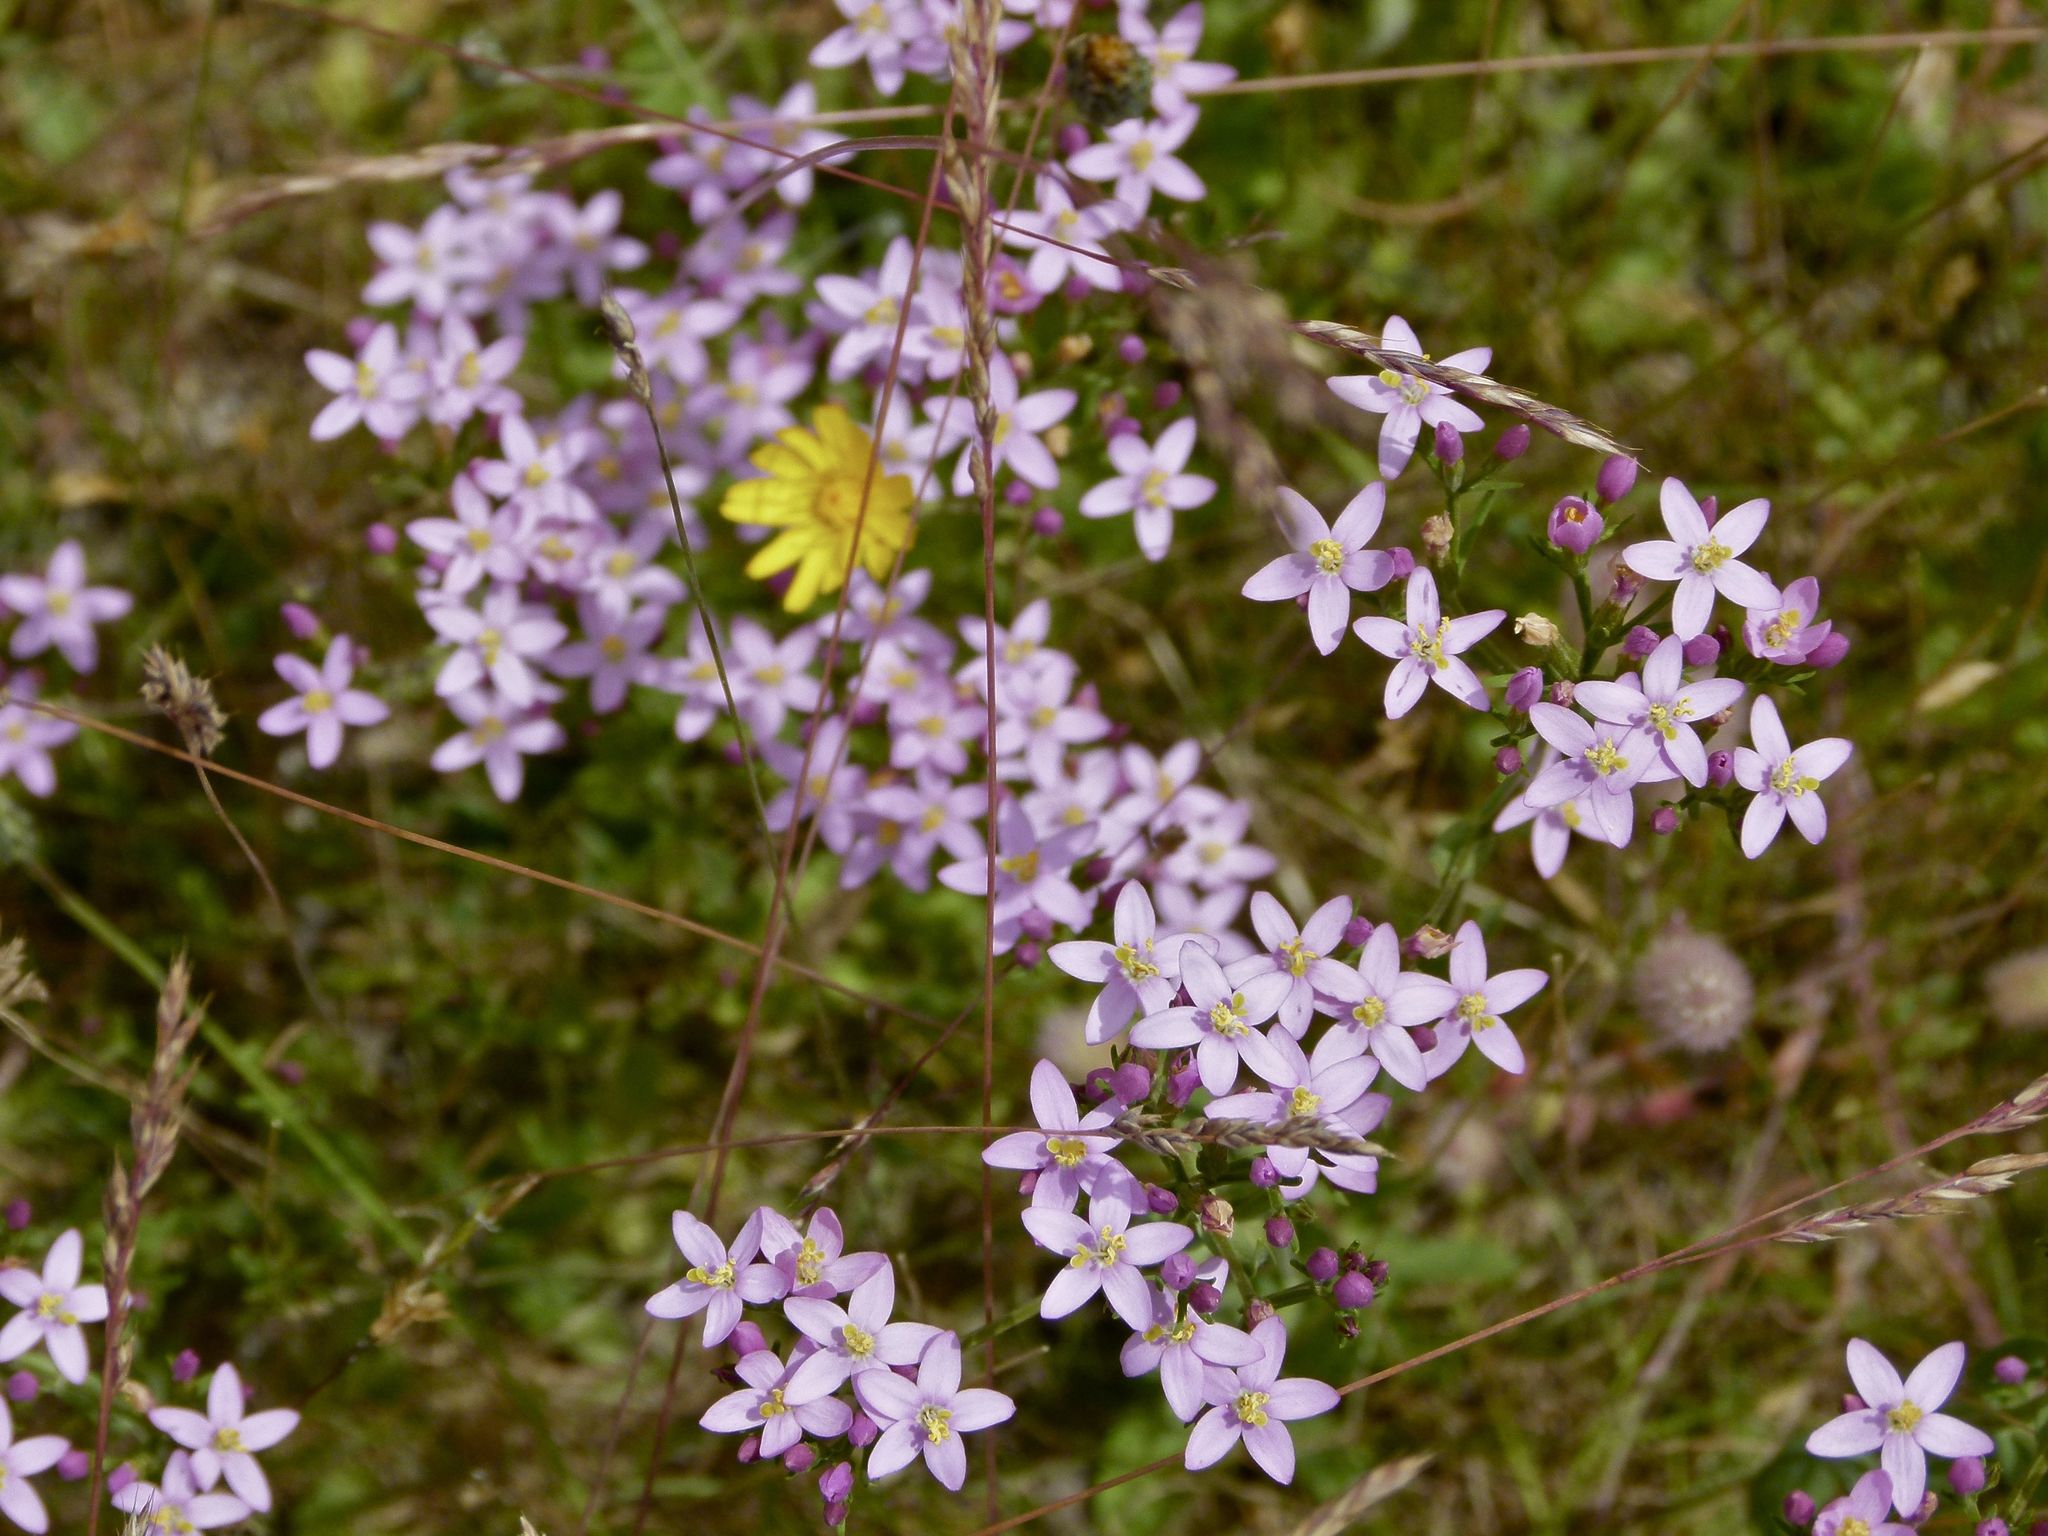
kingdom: Plantae
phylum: Tracheophyta
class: Magnoliopsida
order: Gentianales
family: Gentianaceae
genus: Centaurium
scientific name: Centaurium erythraea
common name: Common centaury
